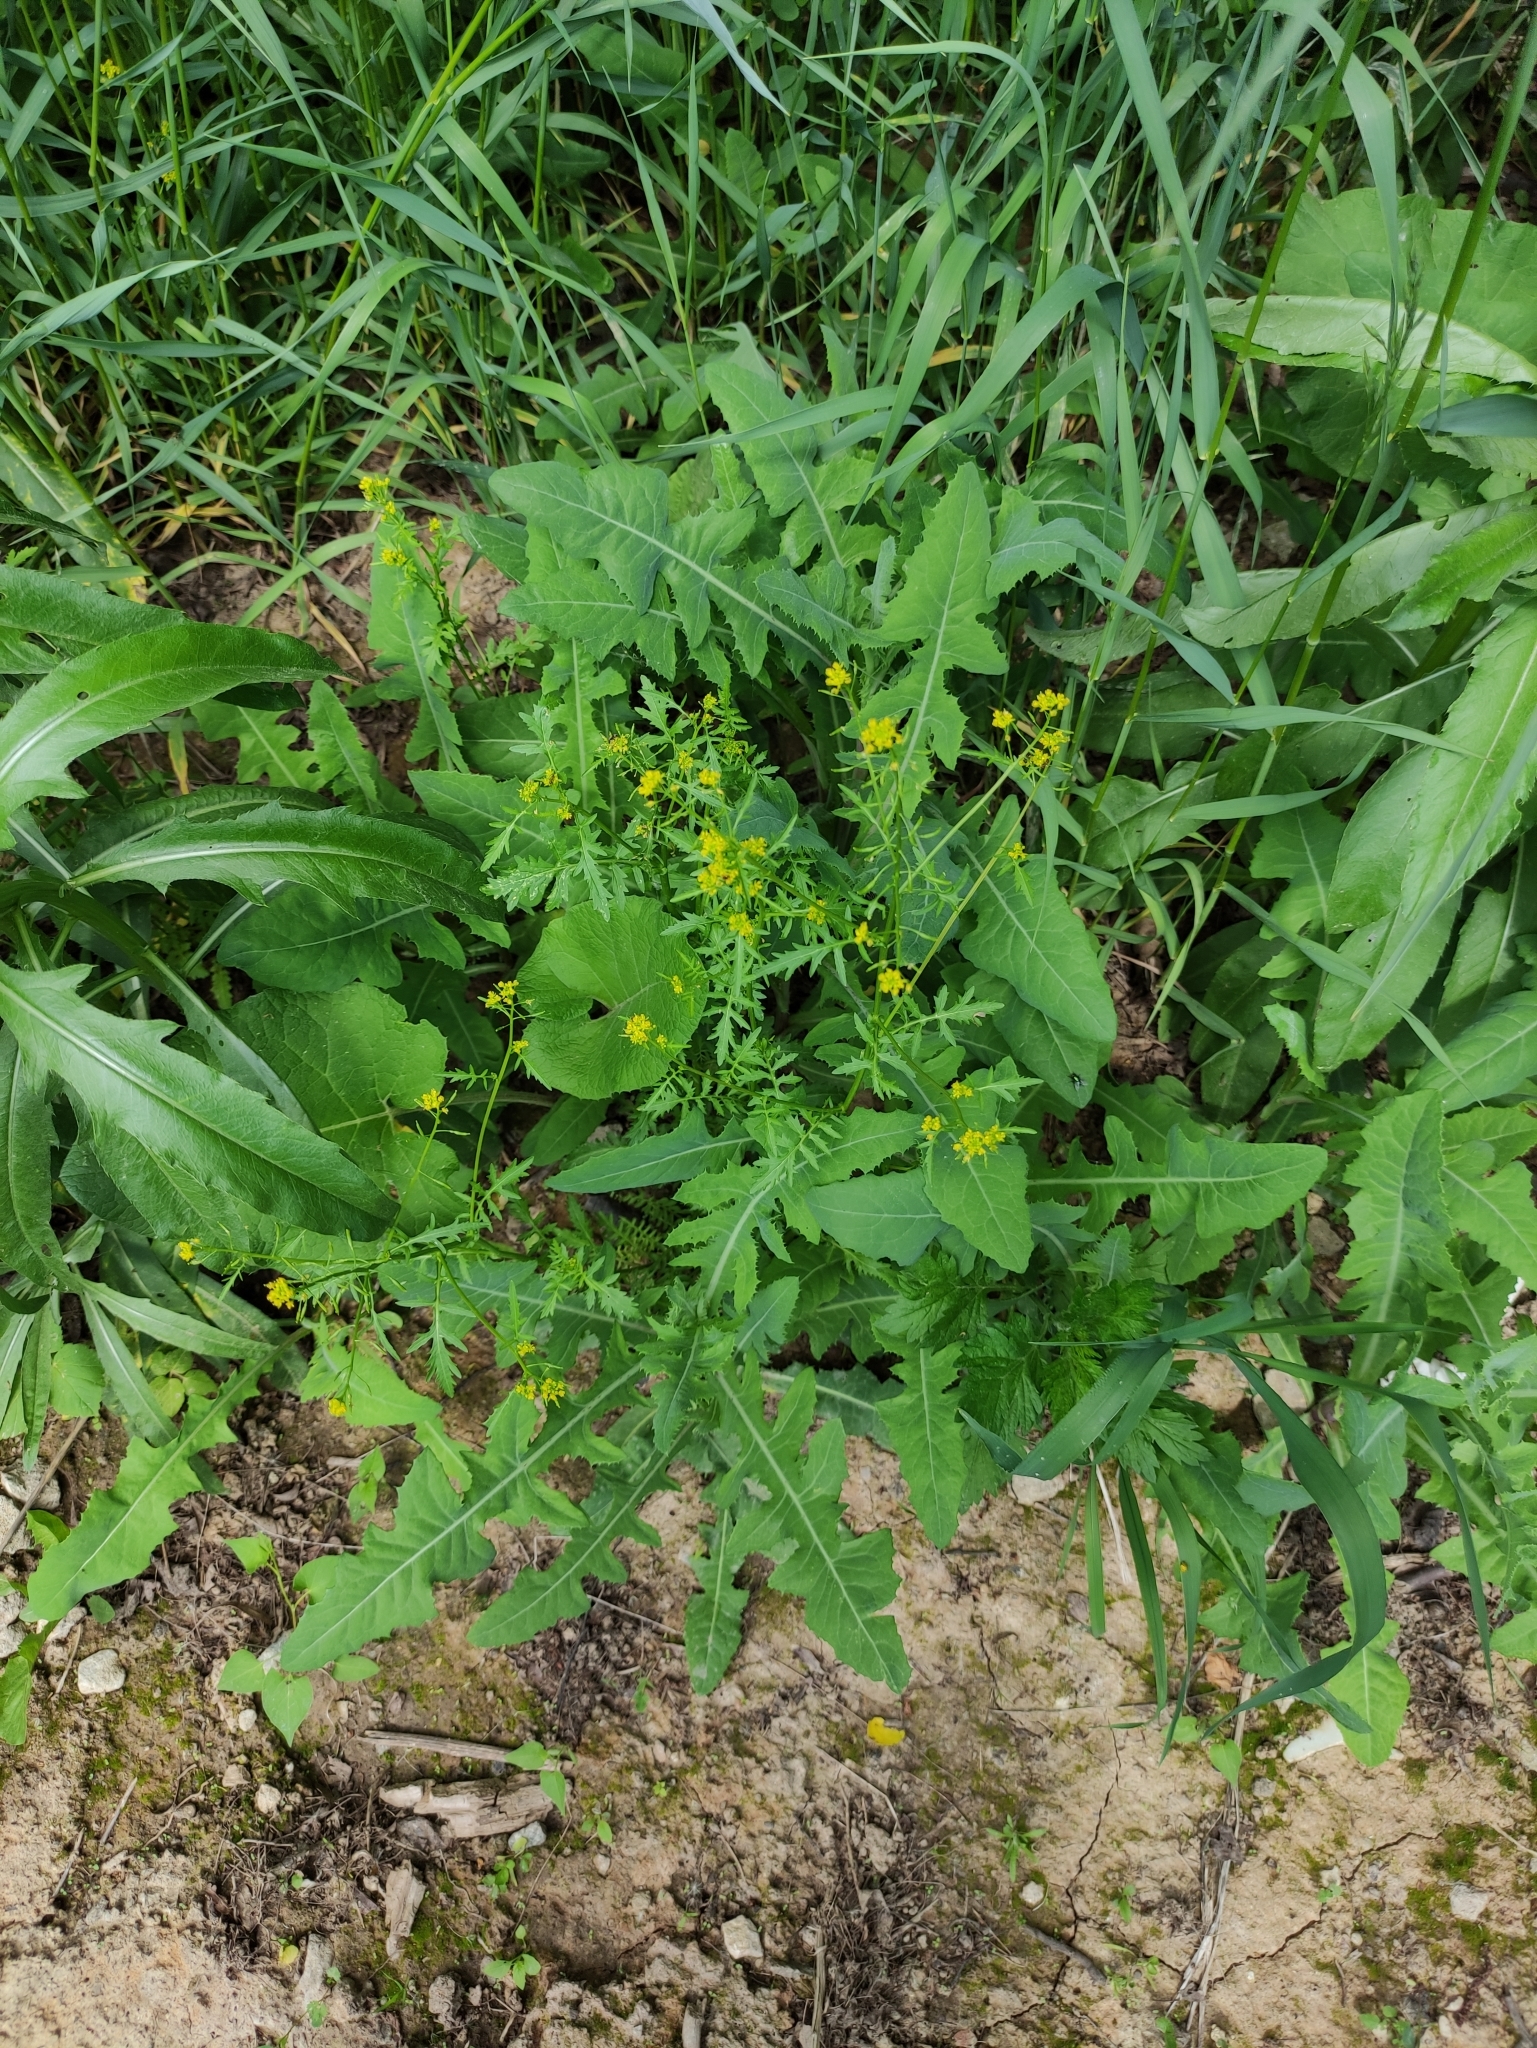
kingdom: Plantae
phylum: Tracheophyta
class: Magnoliopsida
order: Brassicales
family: Brassicaceae
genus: Rorippa
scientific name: Rorippa palustris
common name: Marsh yellow-cress
